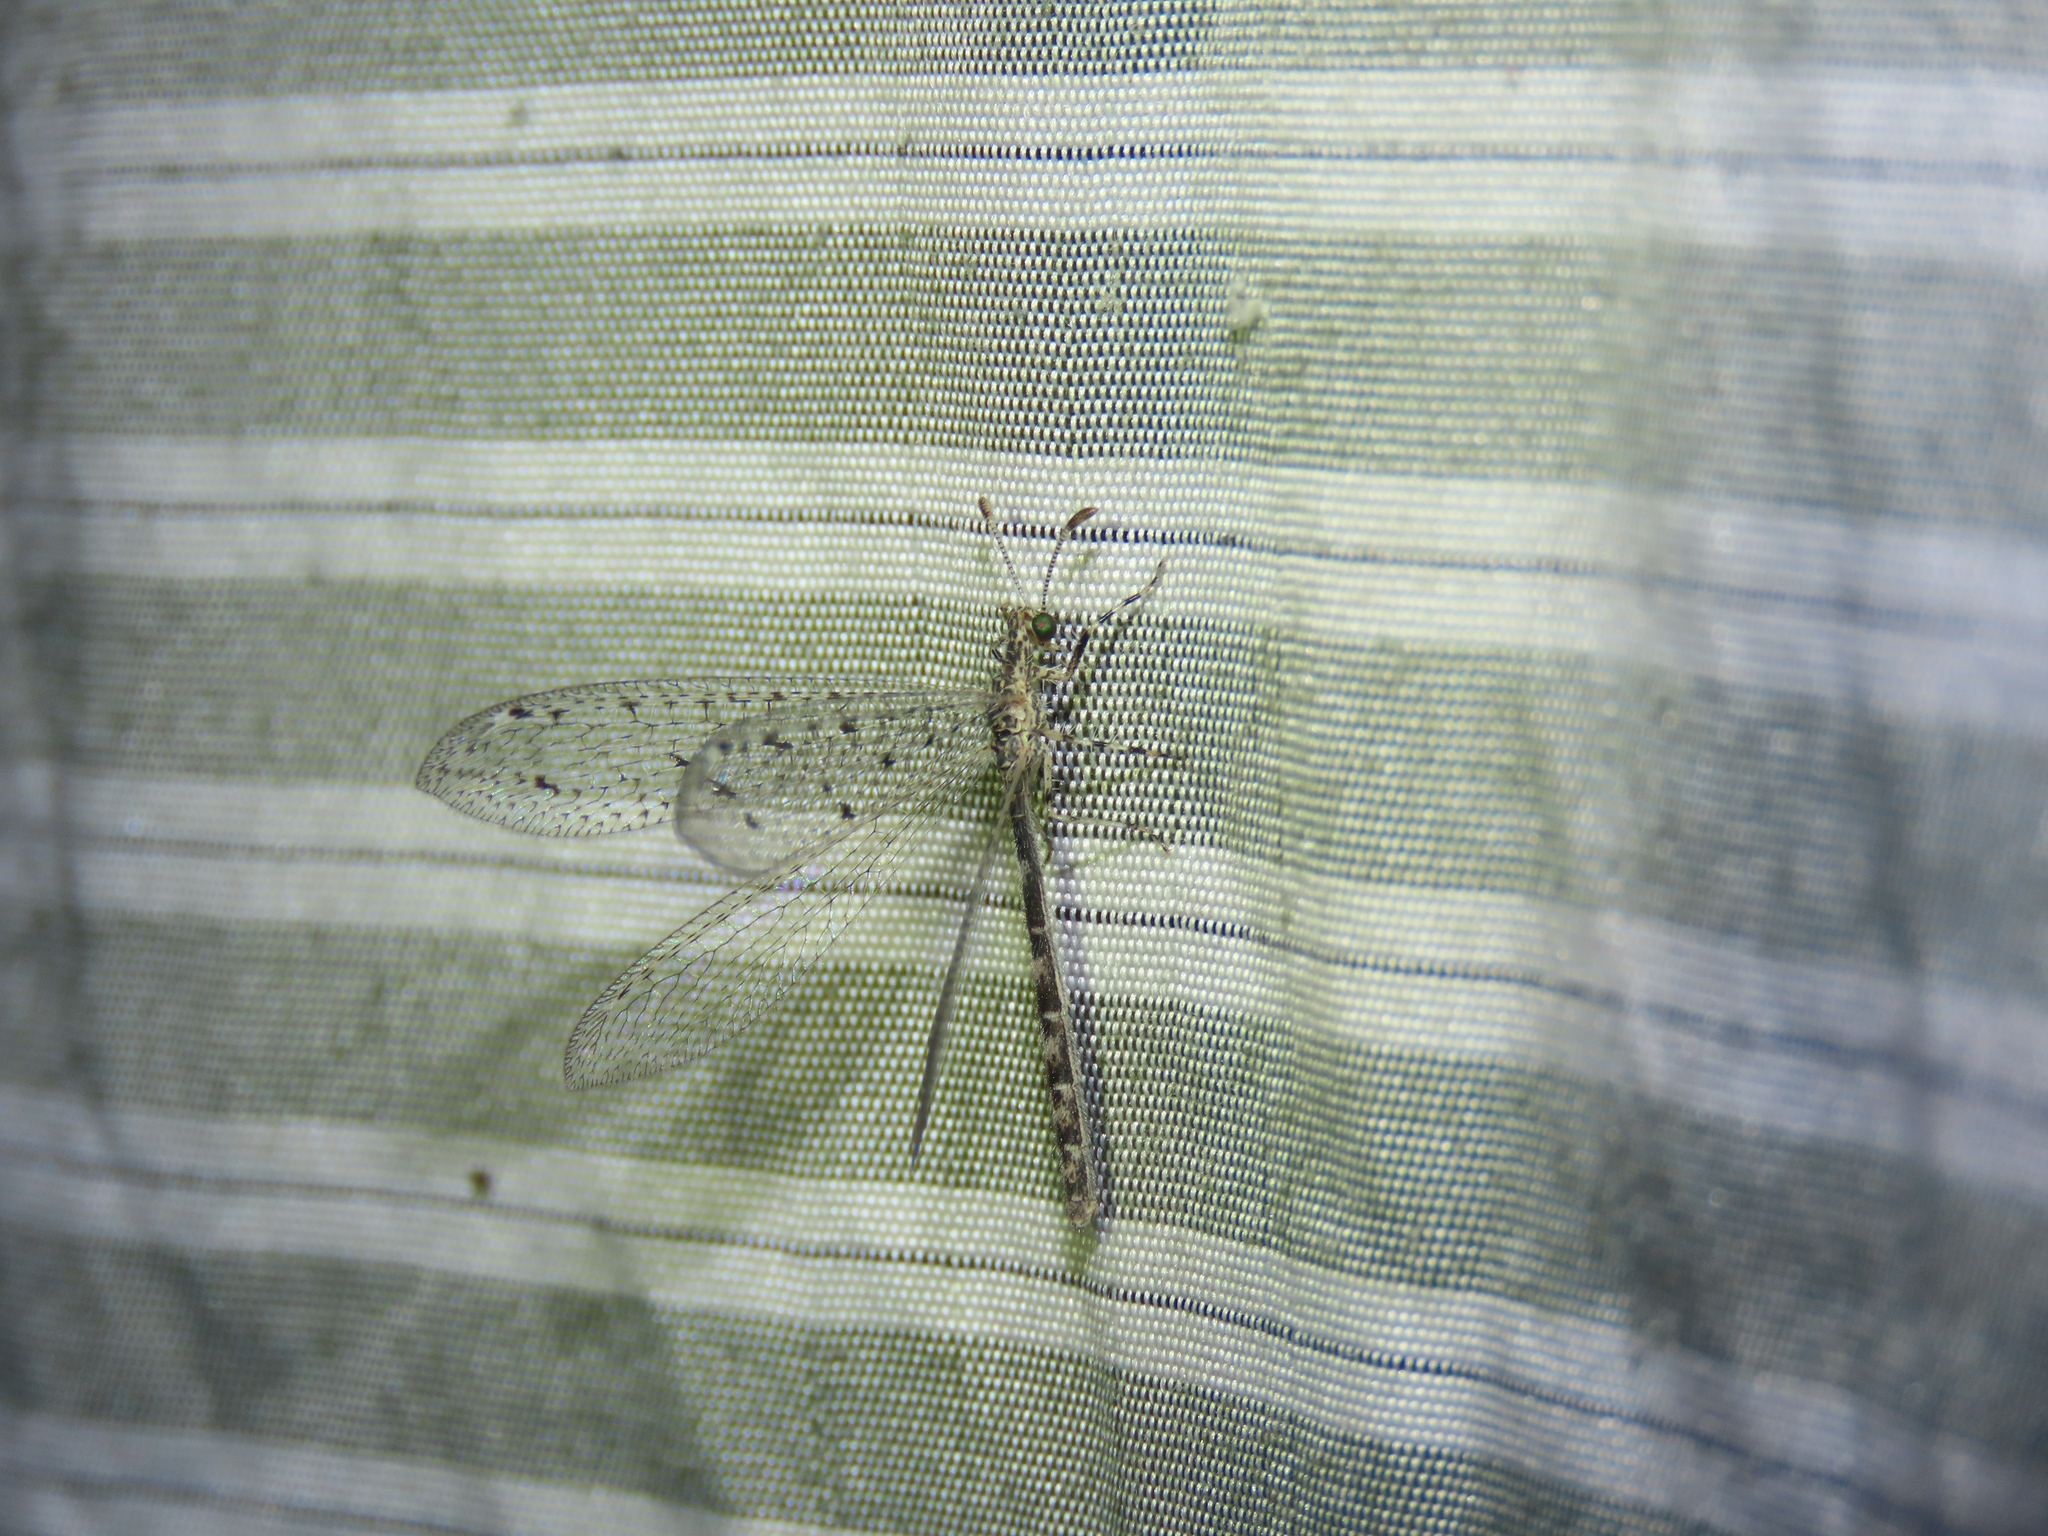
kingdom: Animalia
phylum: Arthropoda
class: Insecta
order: Neuroptera
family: Myrmeleontidae
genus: Chaetoleon
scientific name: Chaetoleon pusillus
